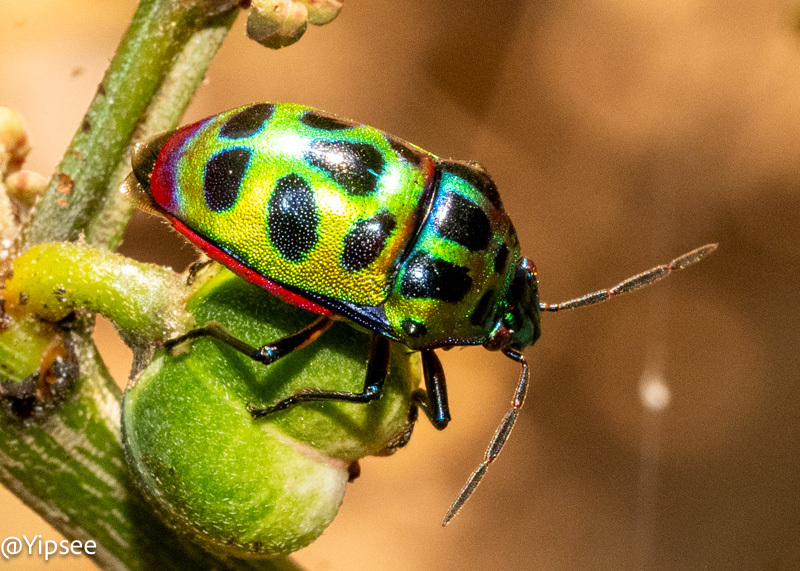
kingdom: Animalia
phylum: Arthropoda
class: Insecta
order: Hemiptera
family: Scutelleridae
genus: Chrysocoris
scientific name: Chrysocoris stollii
